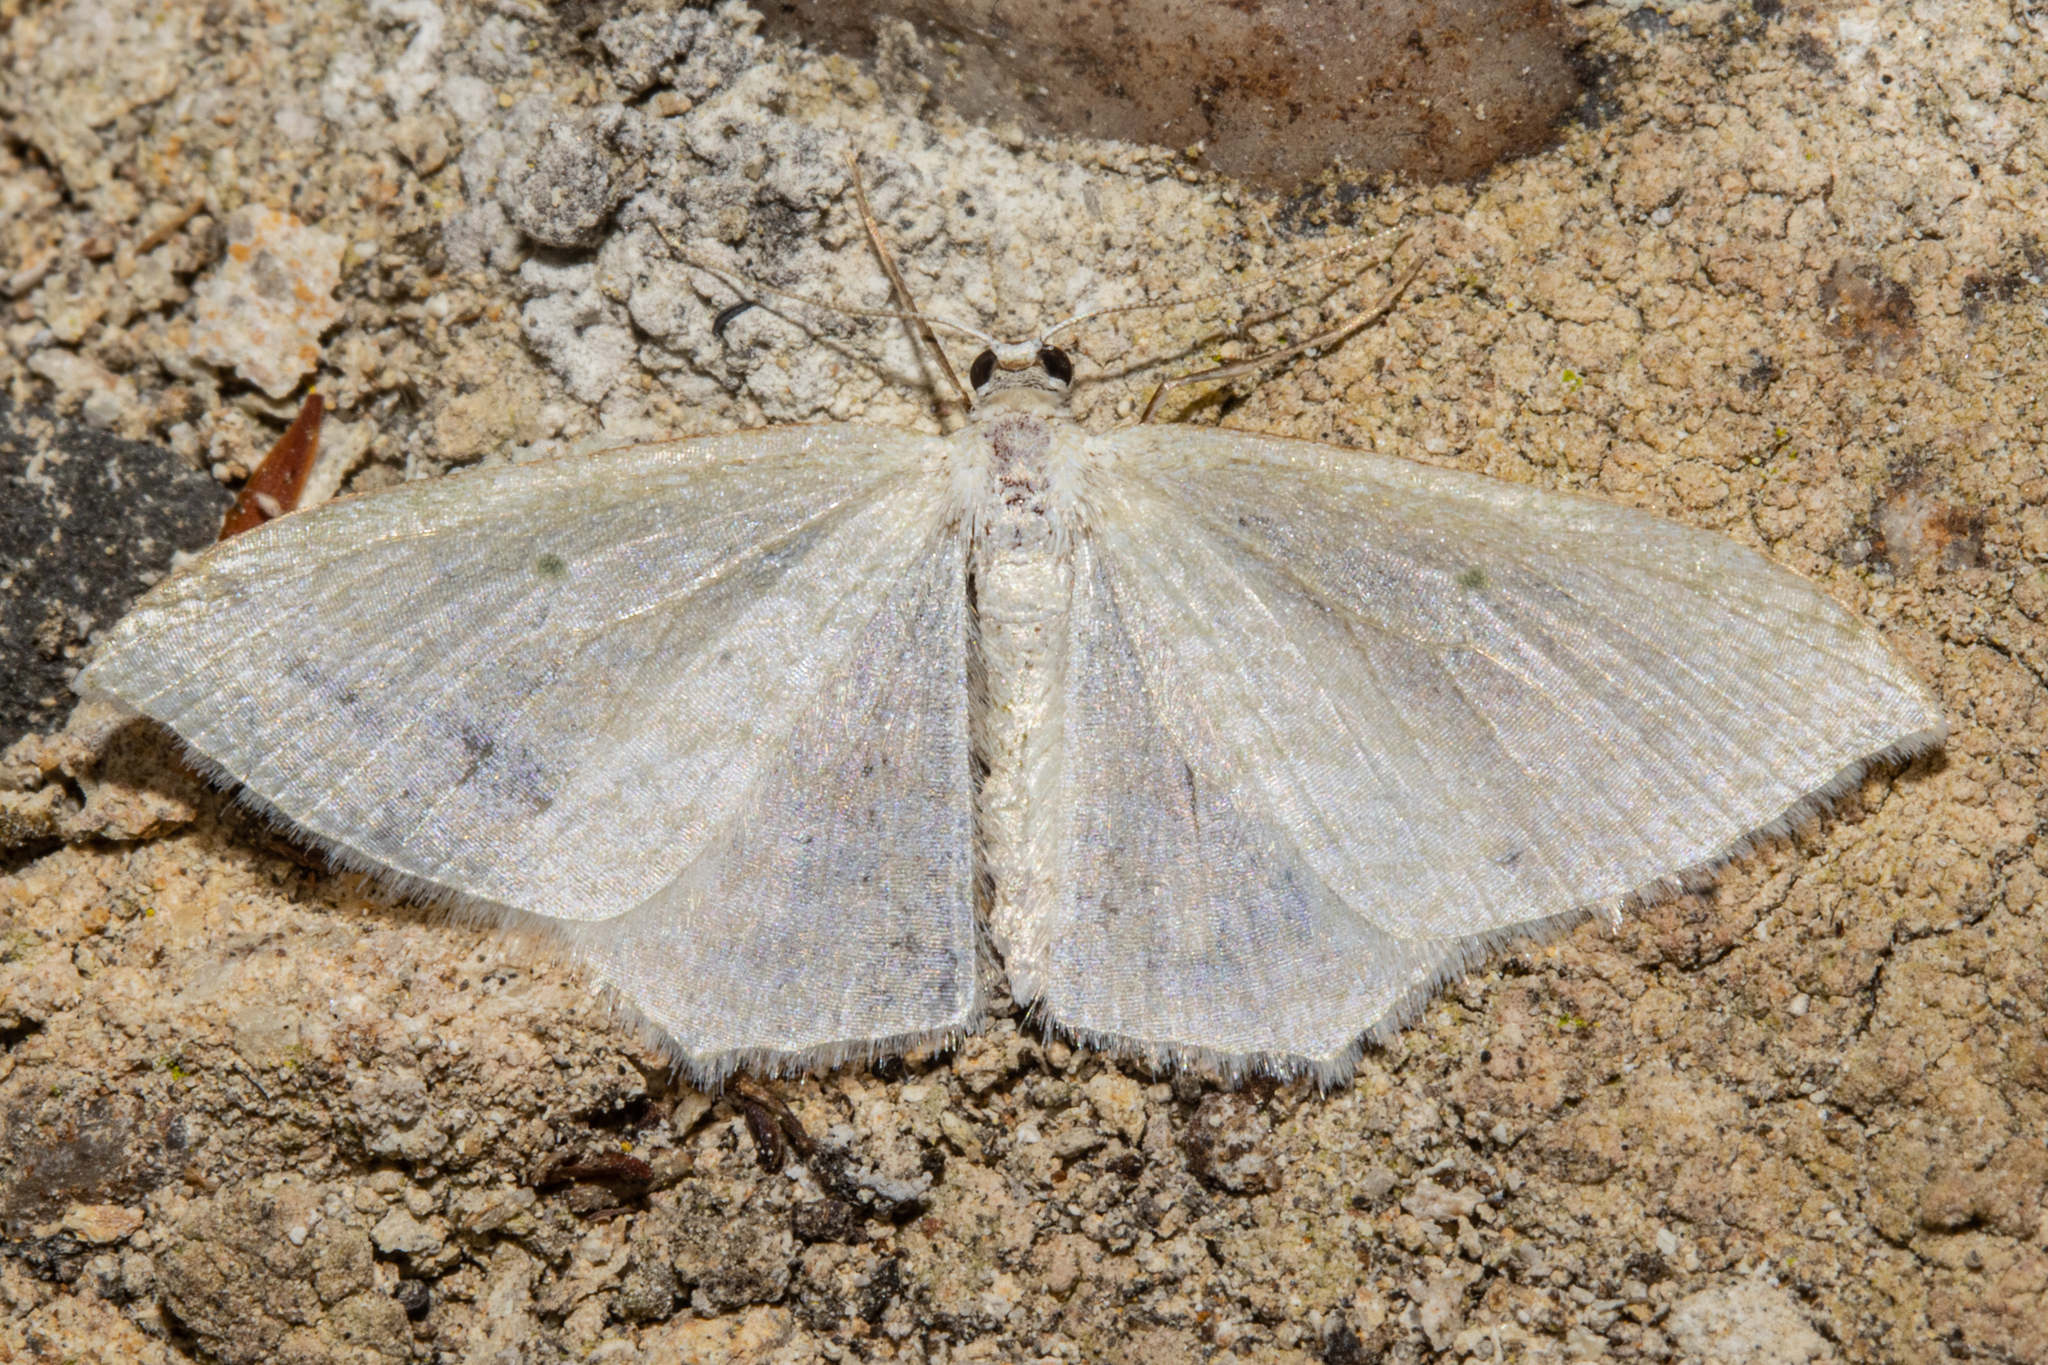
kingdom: Animalia
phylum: Arthropoda
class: Insecta
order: Lepidoptera
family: Geometridae
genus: Poecilasthena
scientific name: Poecilasthena pulchraria
